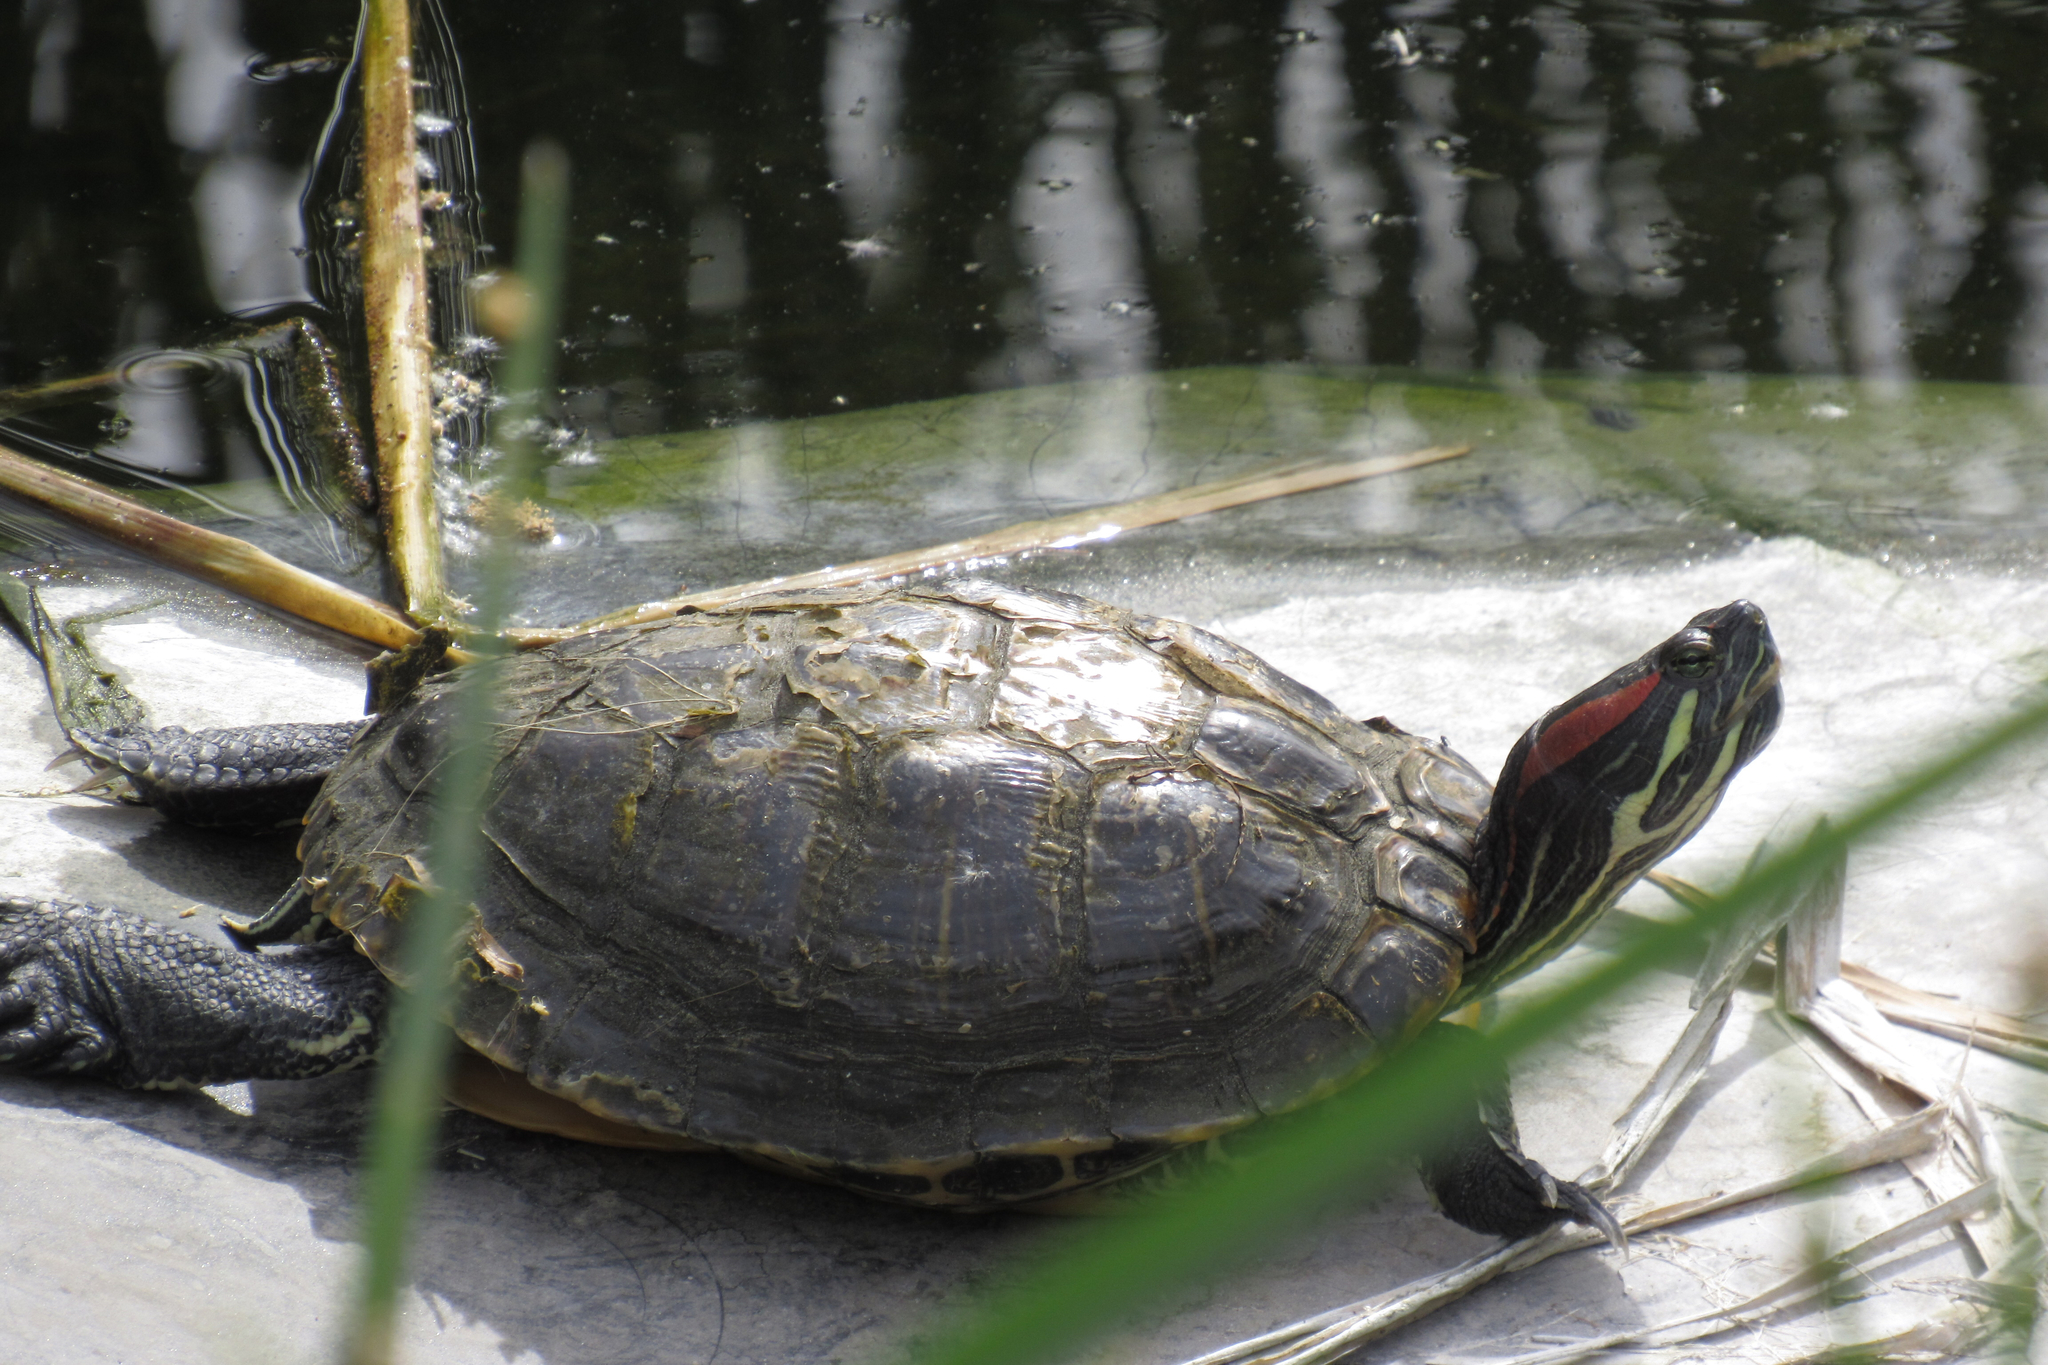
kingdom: Animalia
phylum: Chordata
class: Testudines
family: Emydidae
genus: Trachemys
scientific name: Trachemys scripta
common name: Slider
